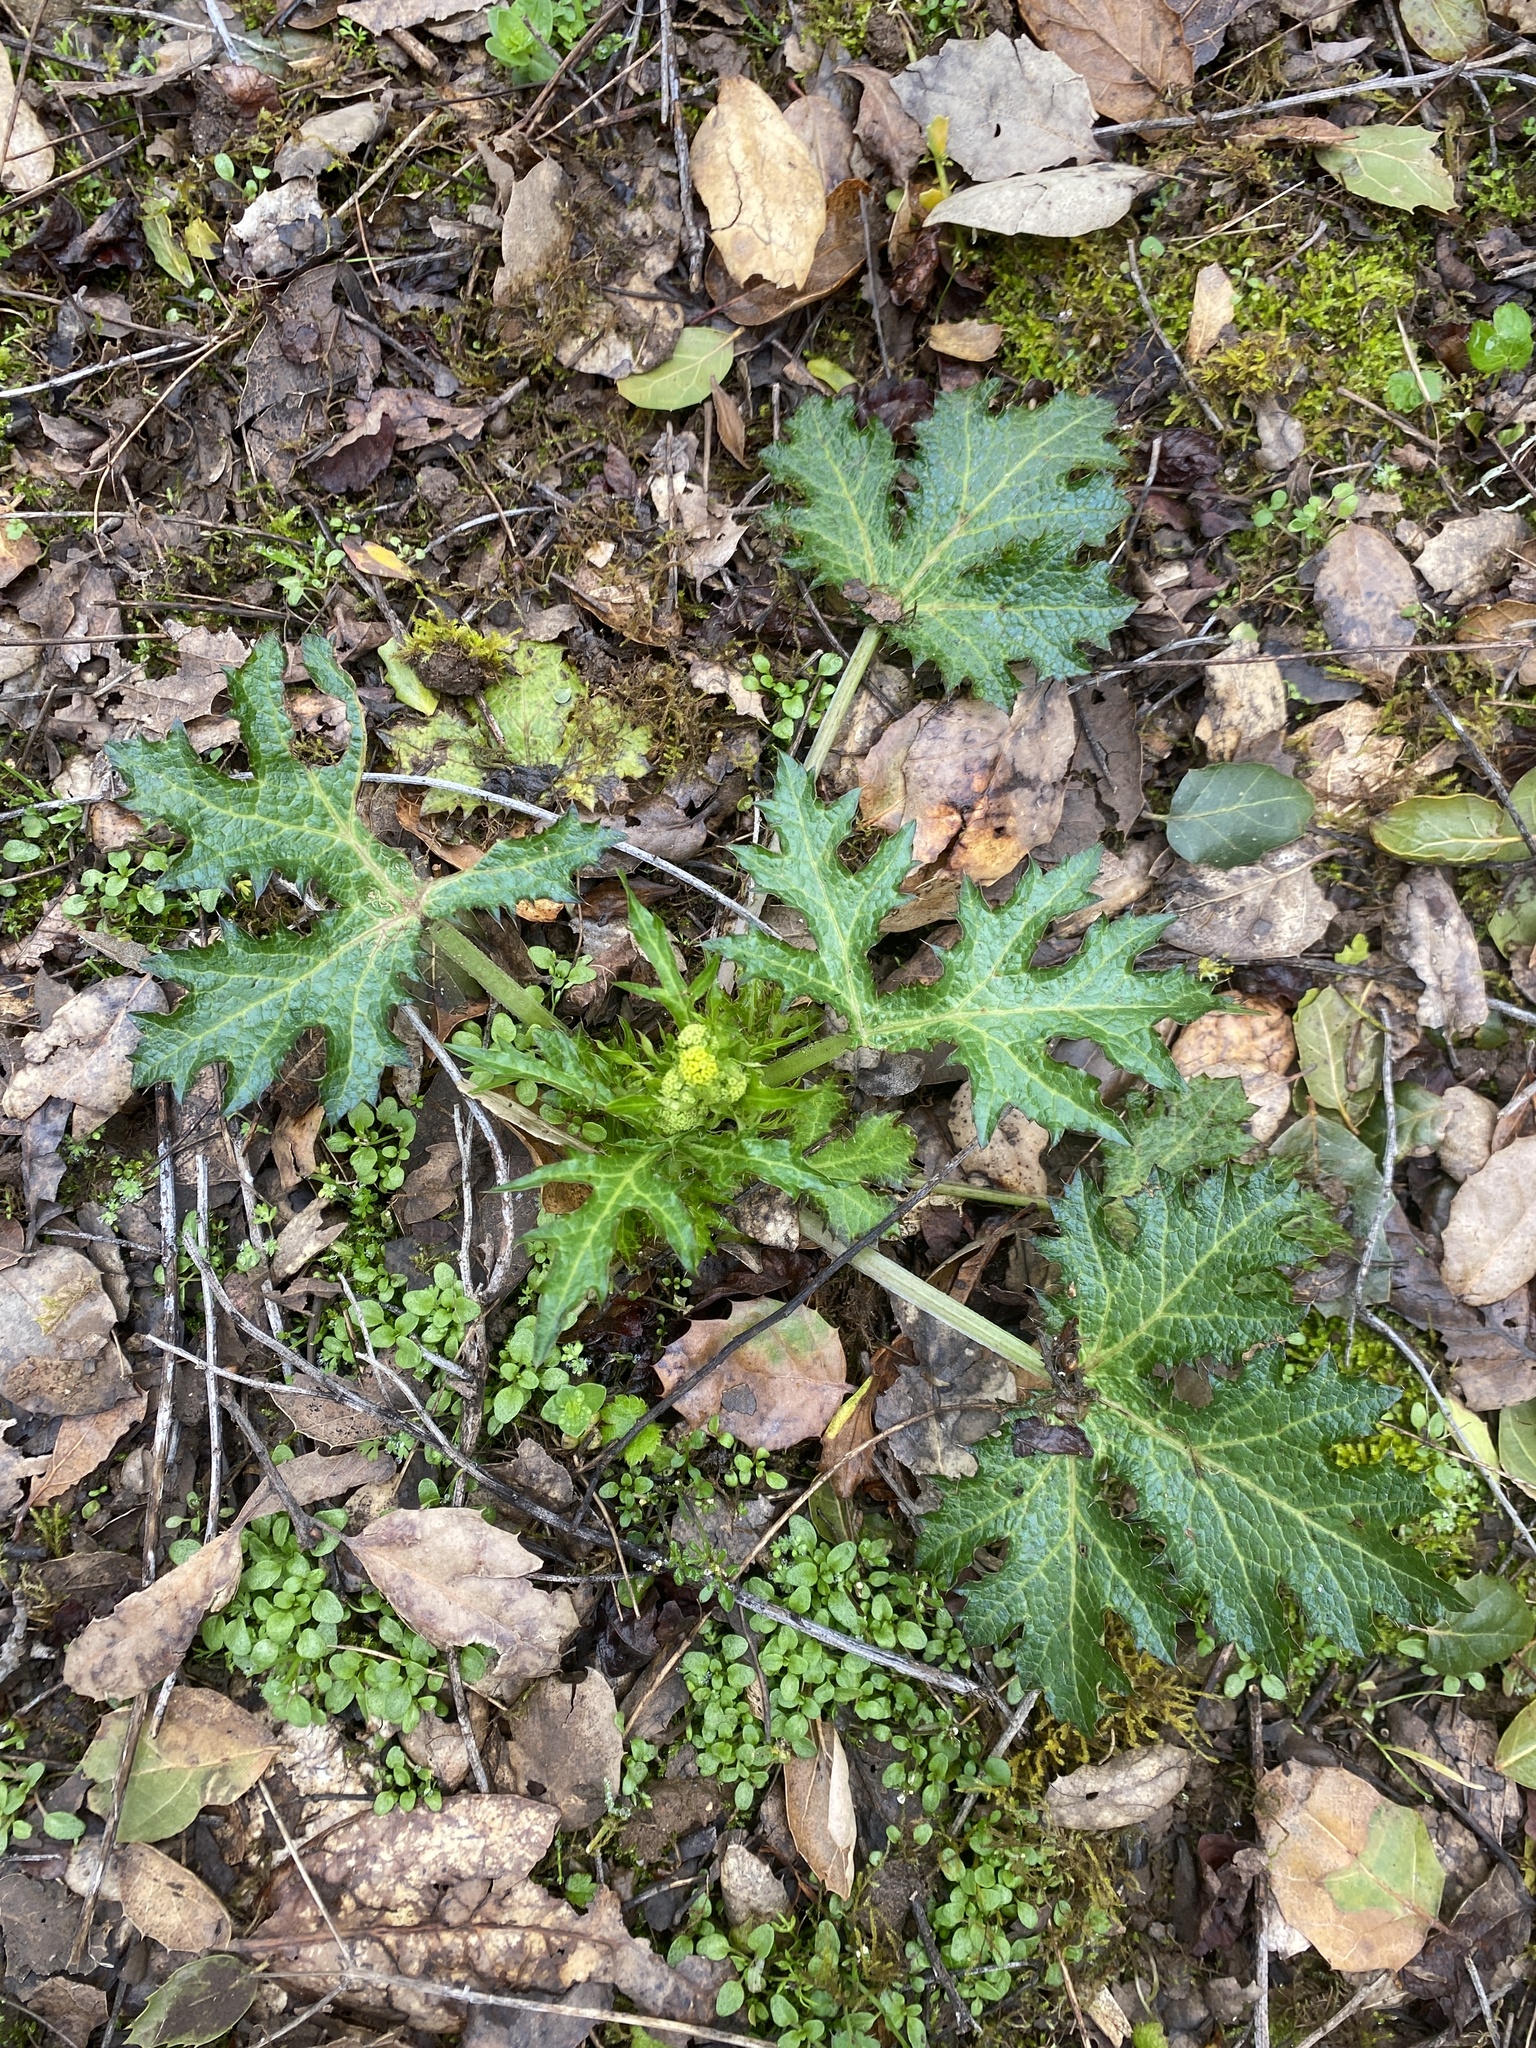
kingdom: Plantae
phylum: Tracheophyta
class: Magnoliopsida
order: Apiales
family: Apiaceae
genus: Sanicula
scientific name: Sanicula crassicaulis
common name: Western snakeroot
